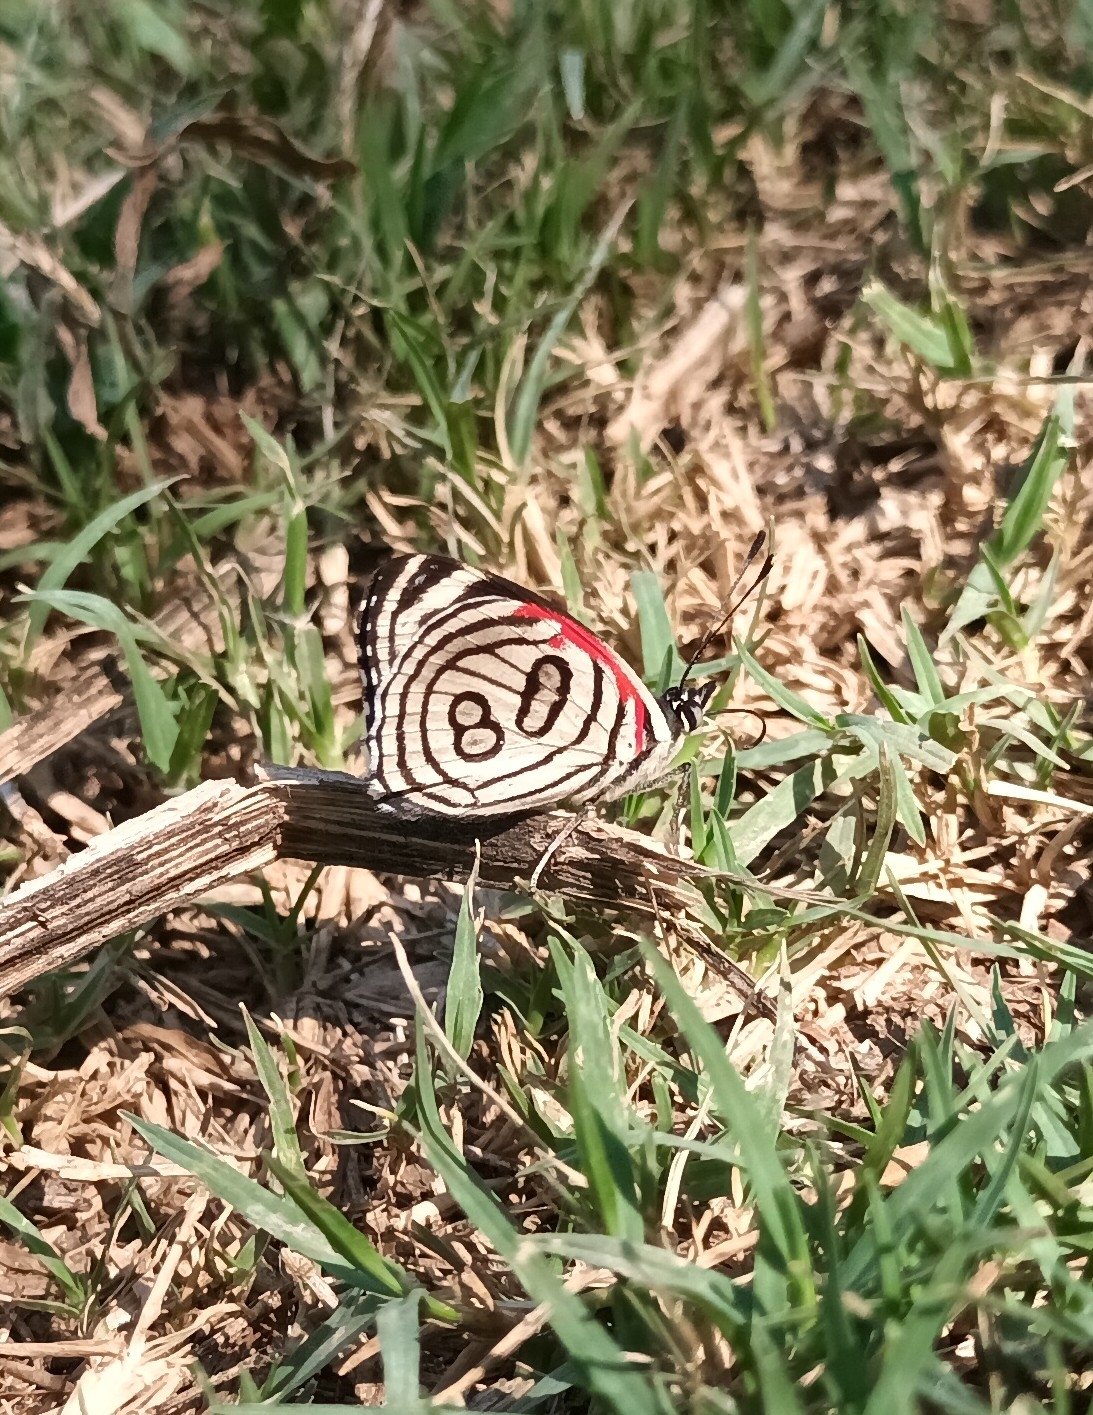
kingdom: Animalia
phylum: Arthropoda
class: Insecta
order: Lepidoptera
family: Nymphalidae
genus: Diaethria
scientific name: Diaethria candrena
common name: Number eighty
